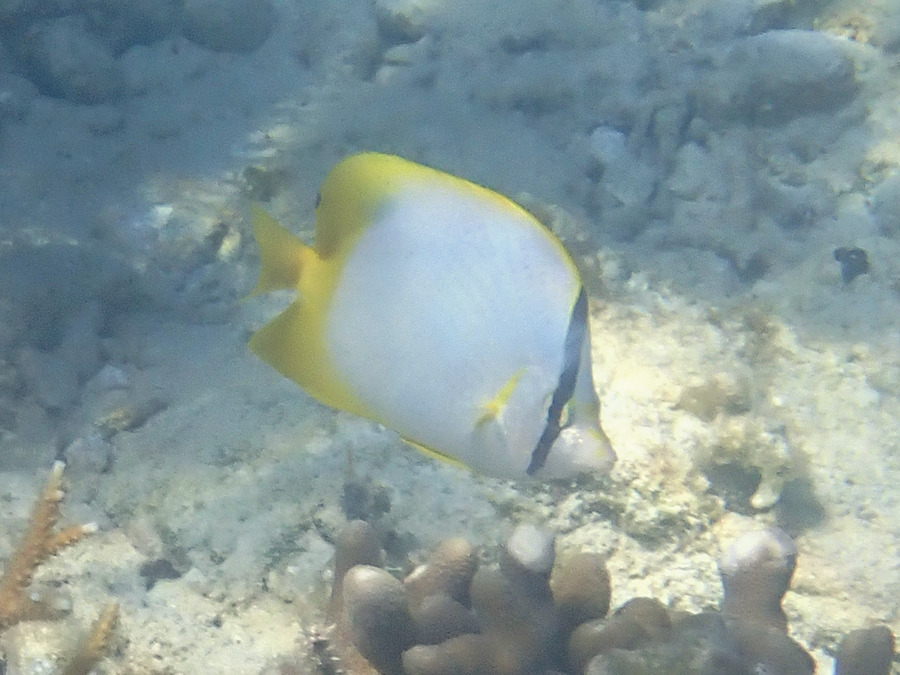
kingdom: Animalia
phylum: Chordata
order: Perciformes
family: Chaetodontidae
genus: Chaetodon
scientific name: Chaetodon ocellatus
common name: Spotfin butterflyfish
